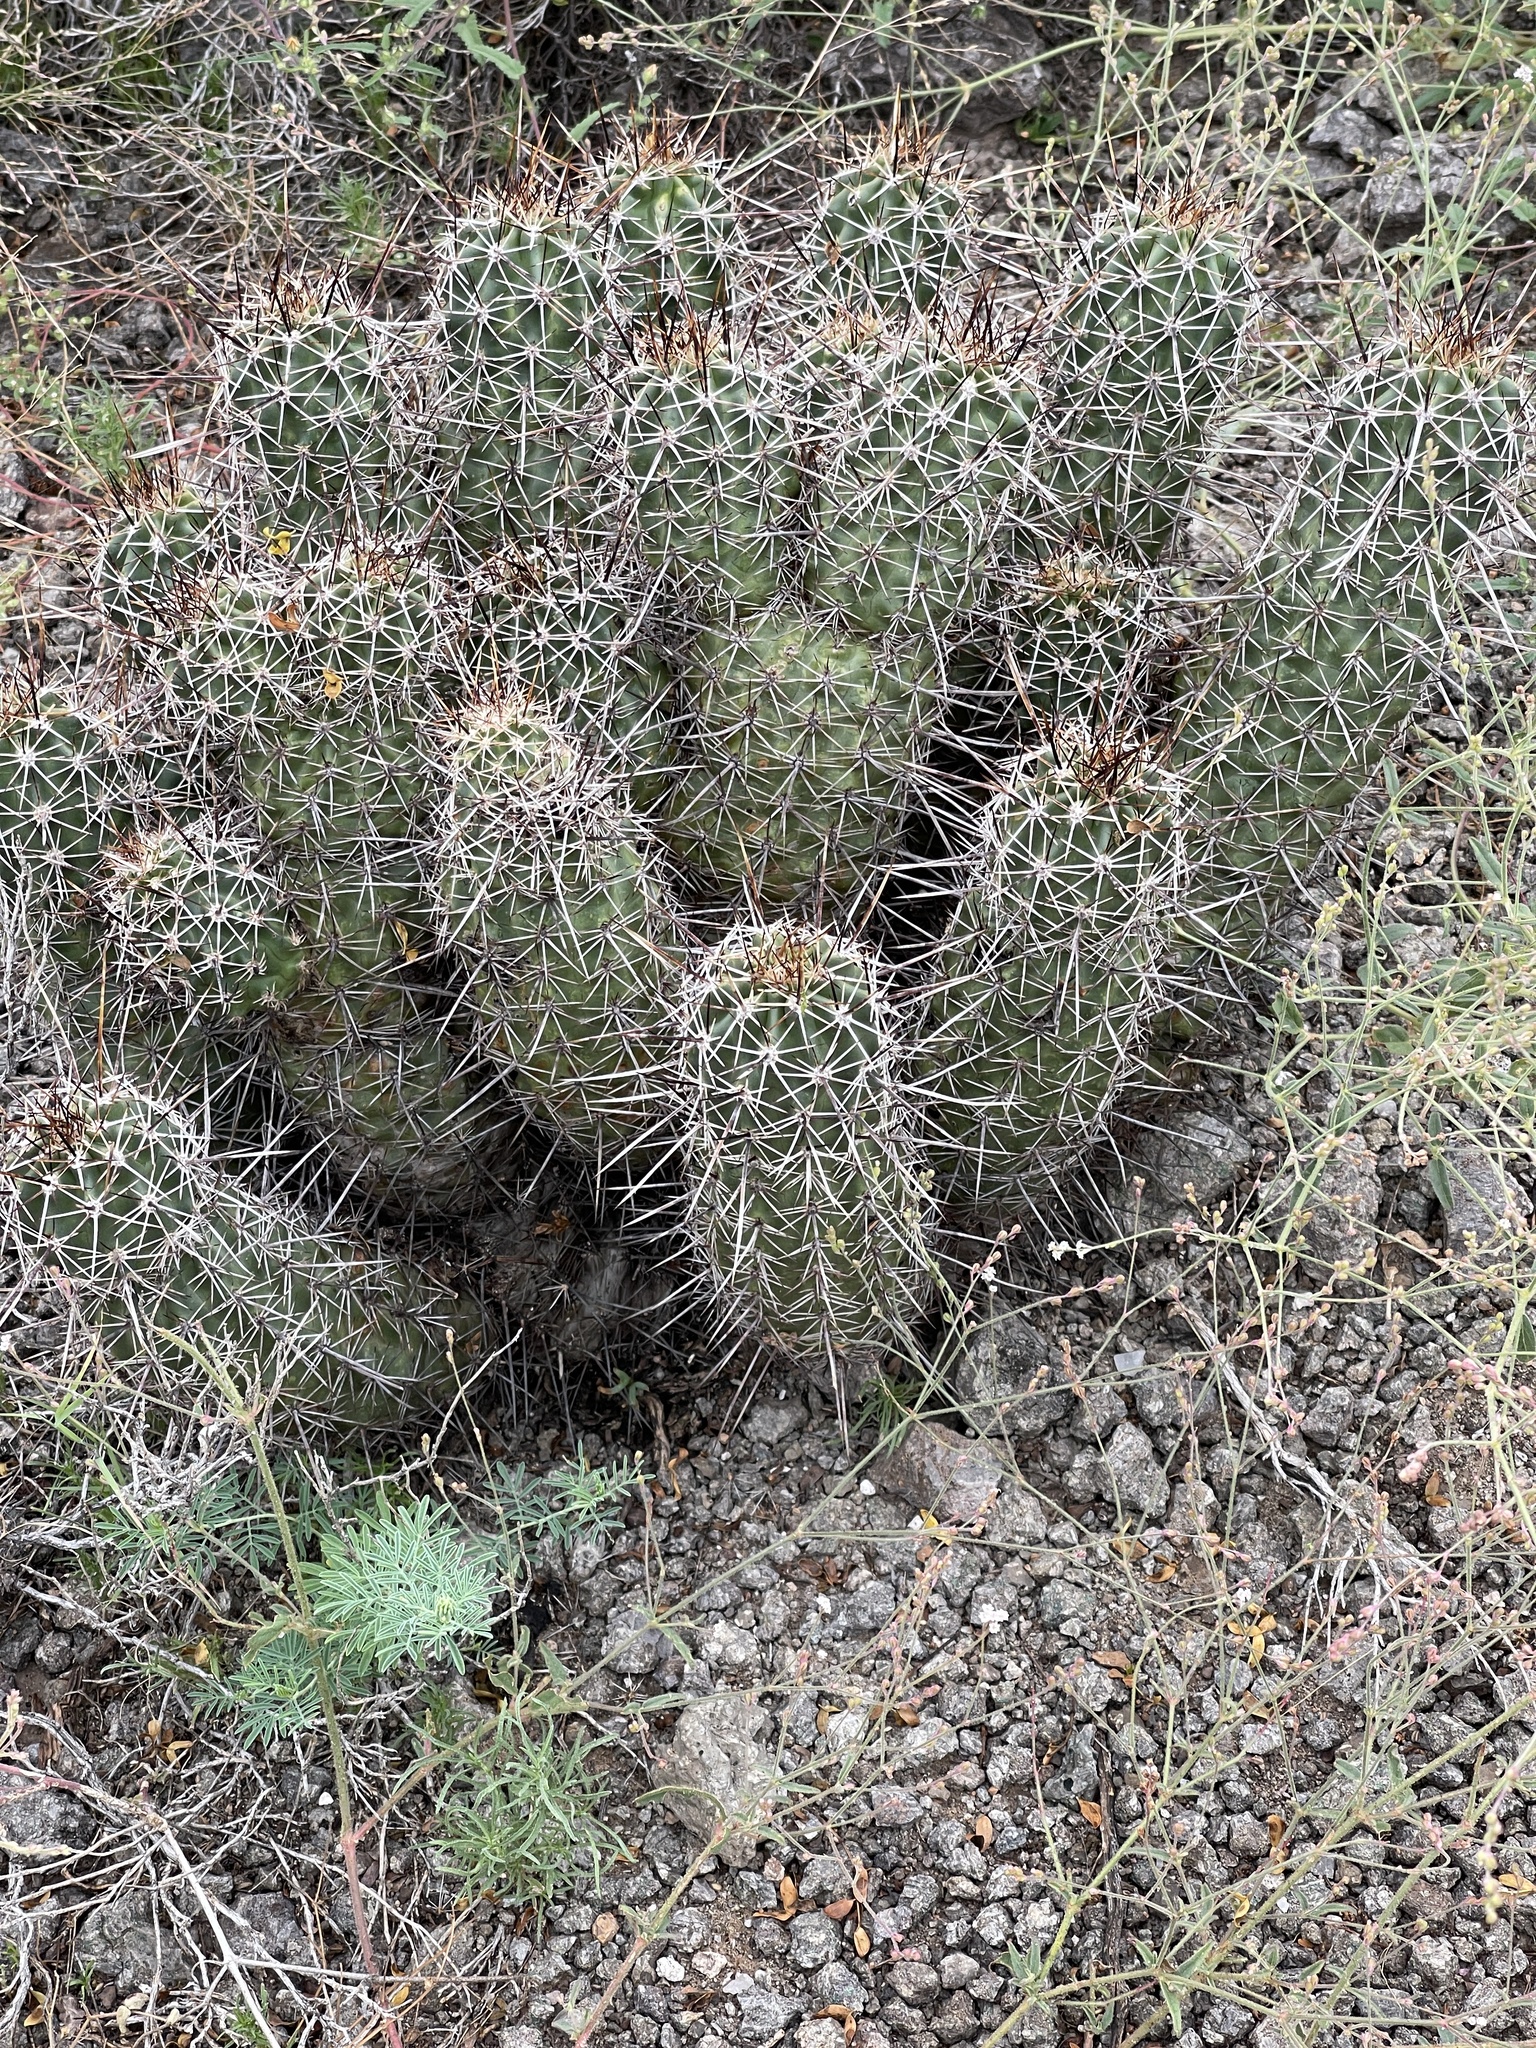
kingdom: Plantae
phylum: Tracheophyta
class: Magnoliopsida
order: Caryophyllales
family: Cactaceae
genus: Echinocereus
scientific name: Echinocereus fasciculatus
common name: Bundle hedgehog
